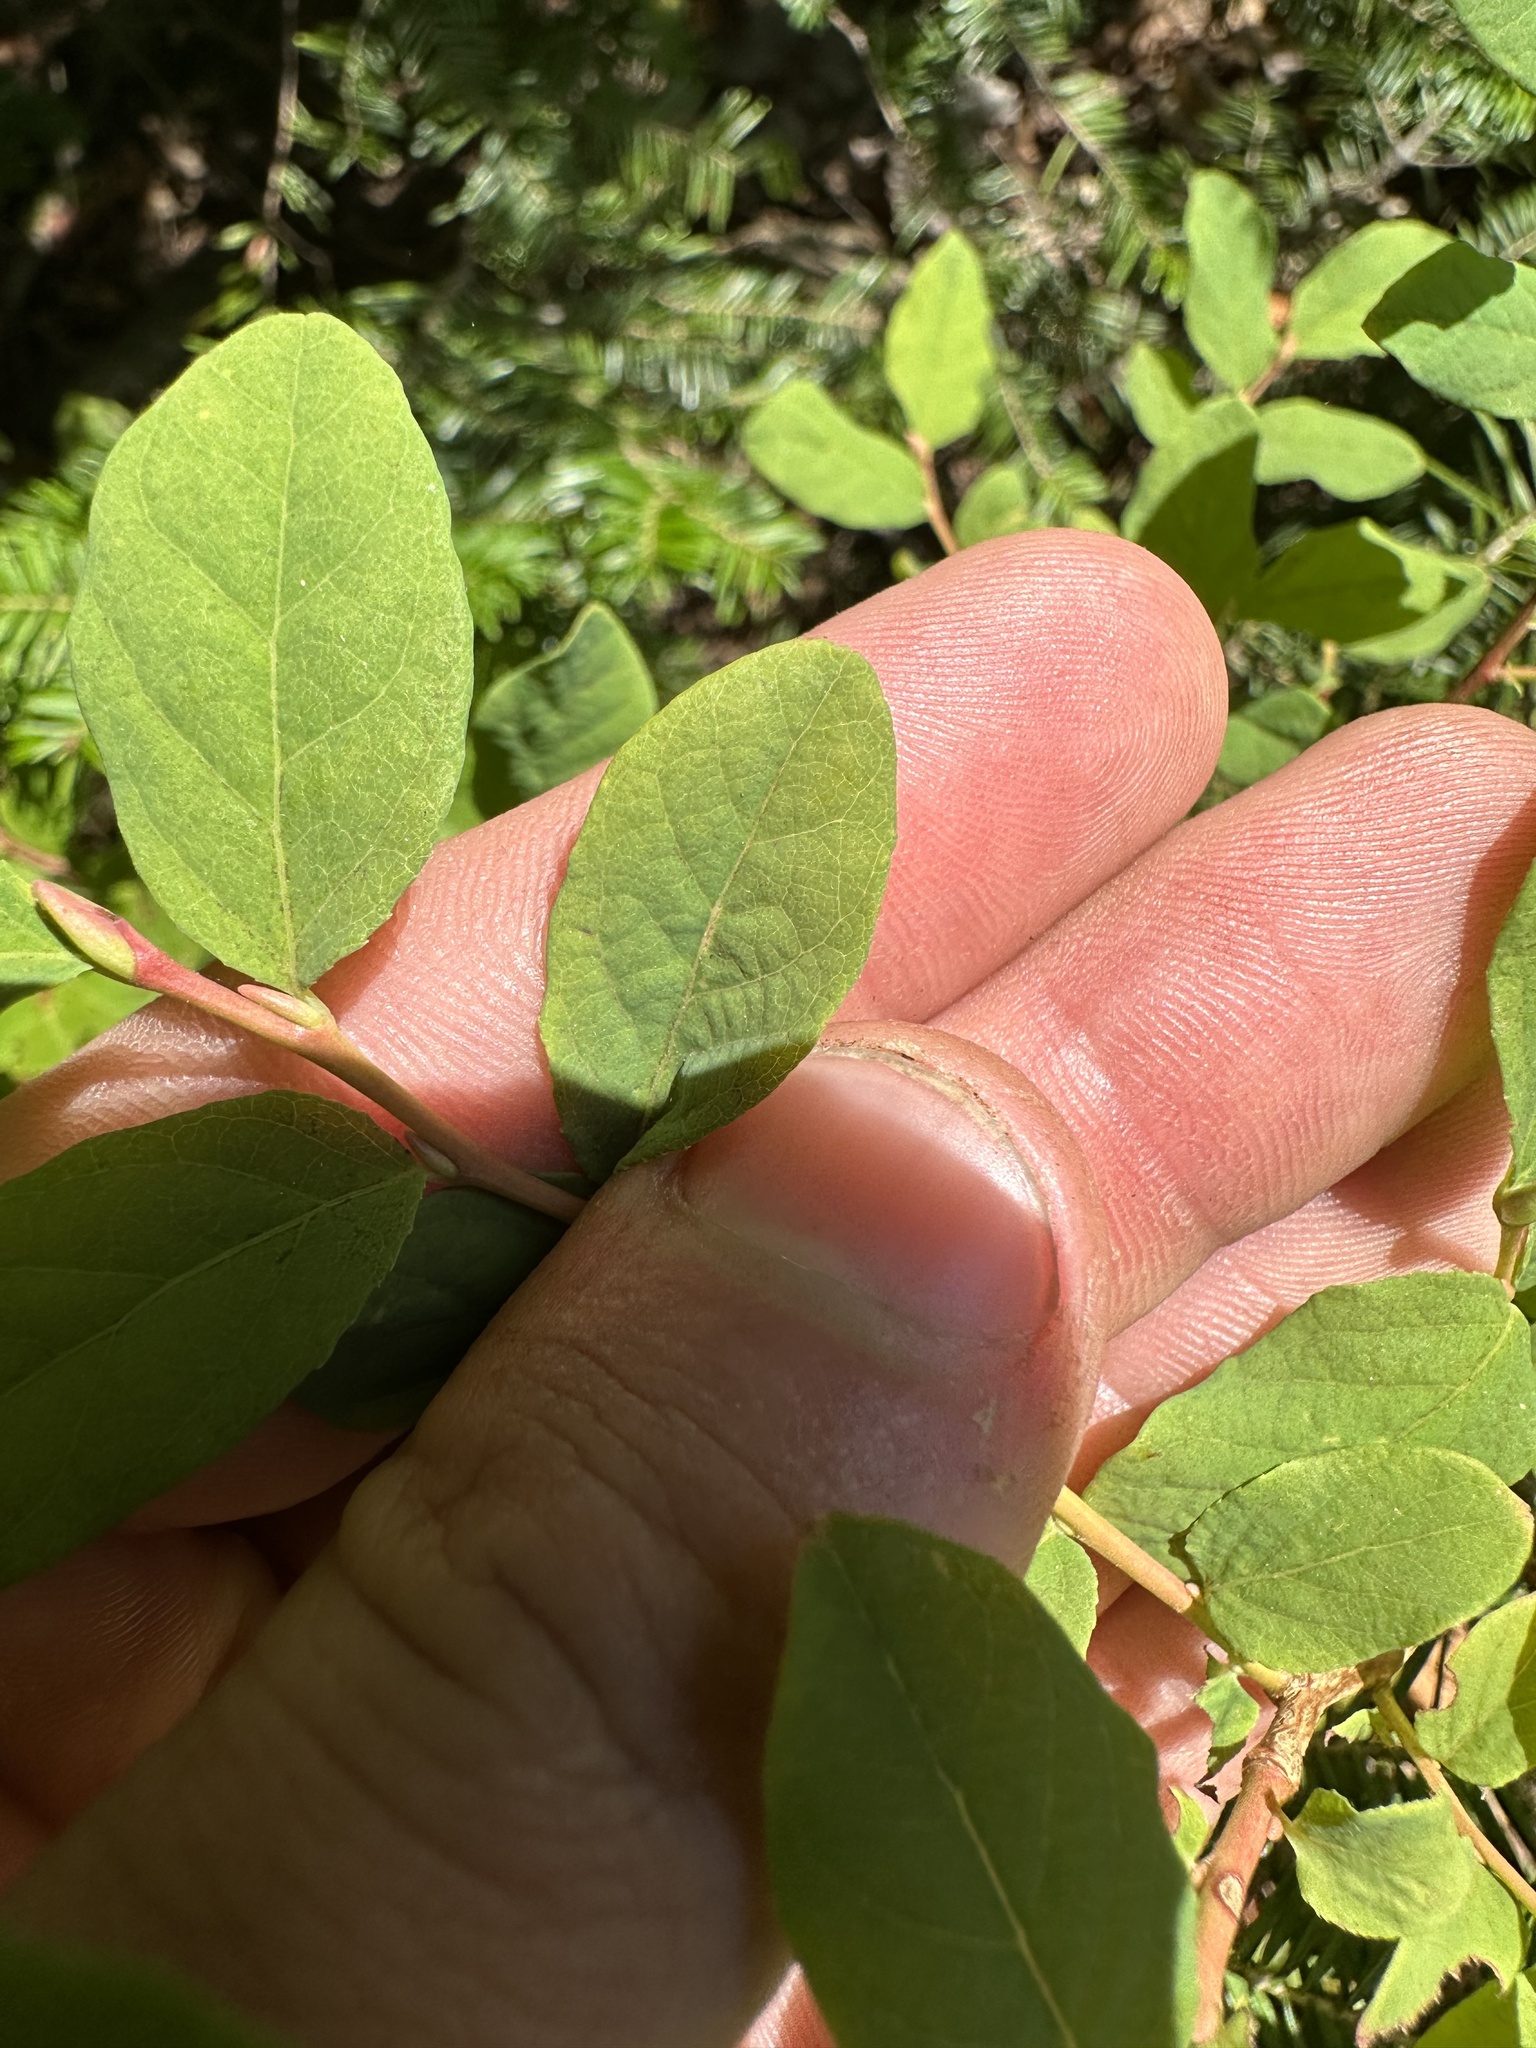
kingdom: Plantae
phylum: Tracheophyta
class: Magnoliopsida
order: Ericales
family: Ericaceae
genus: Vaccinium
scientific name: Vaccinium ovalifolium
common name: Early blueberry
